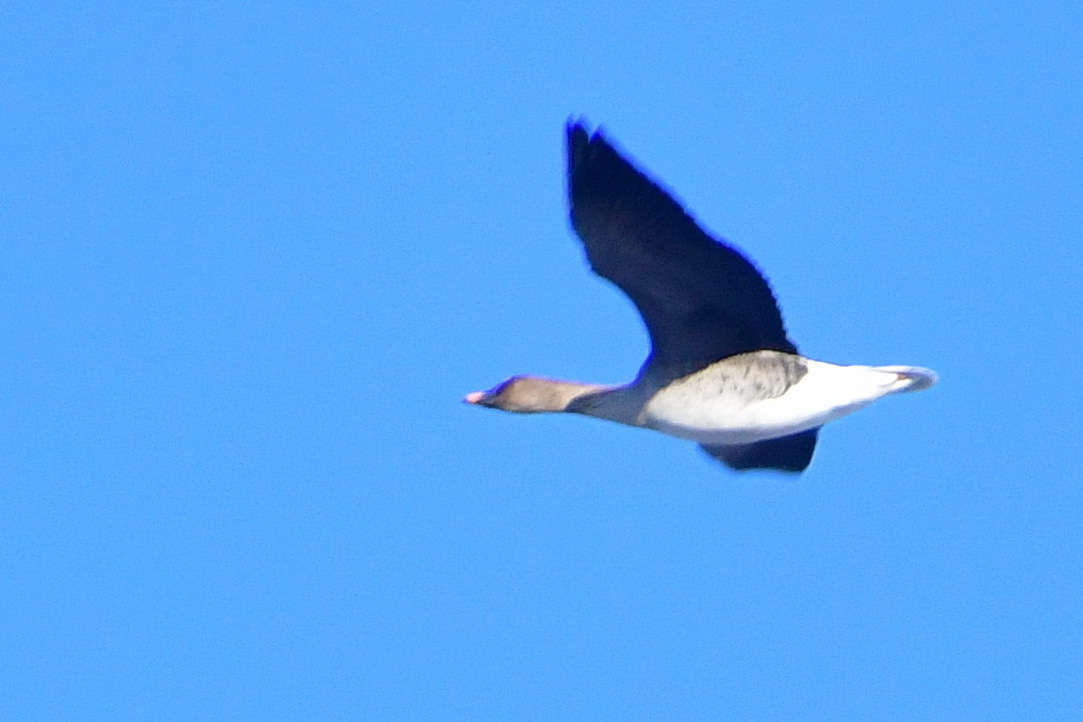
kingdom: Animalia
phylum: Chordata
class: Aves
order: Anseriformes
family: Anatidae
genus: Anser
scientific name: Anser fabalis
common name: Bean goose
